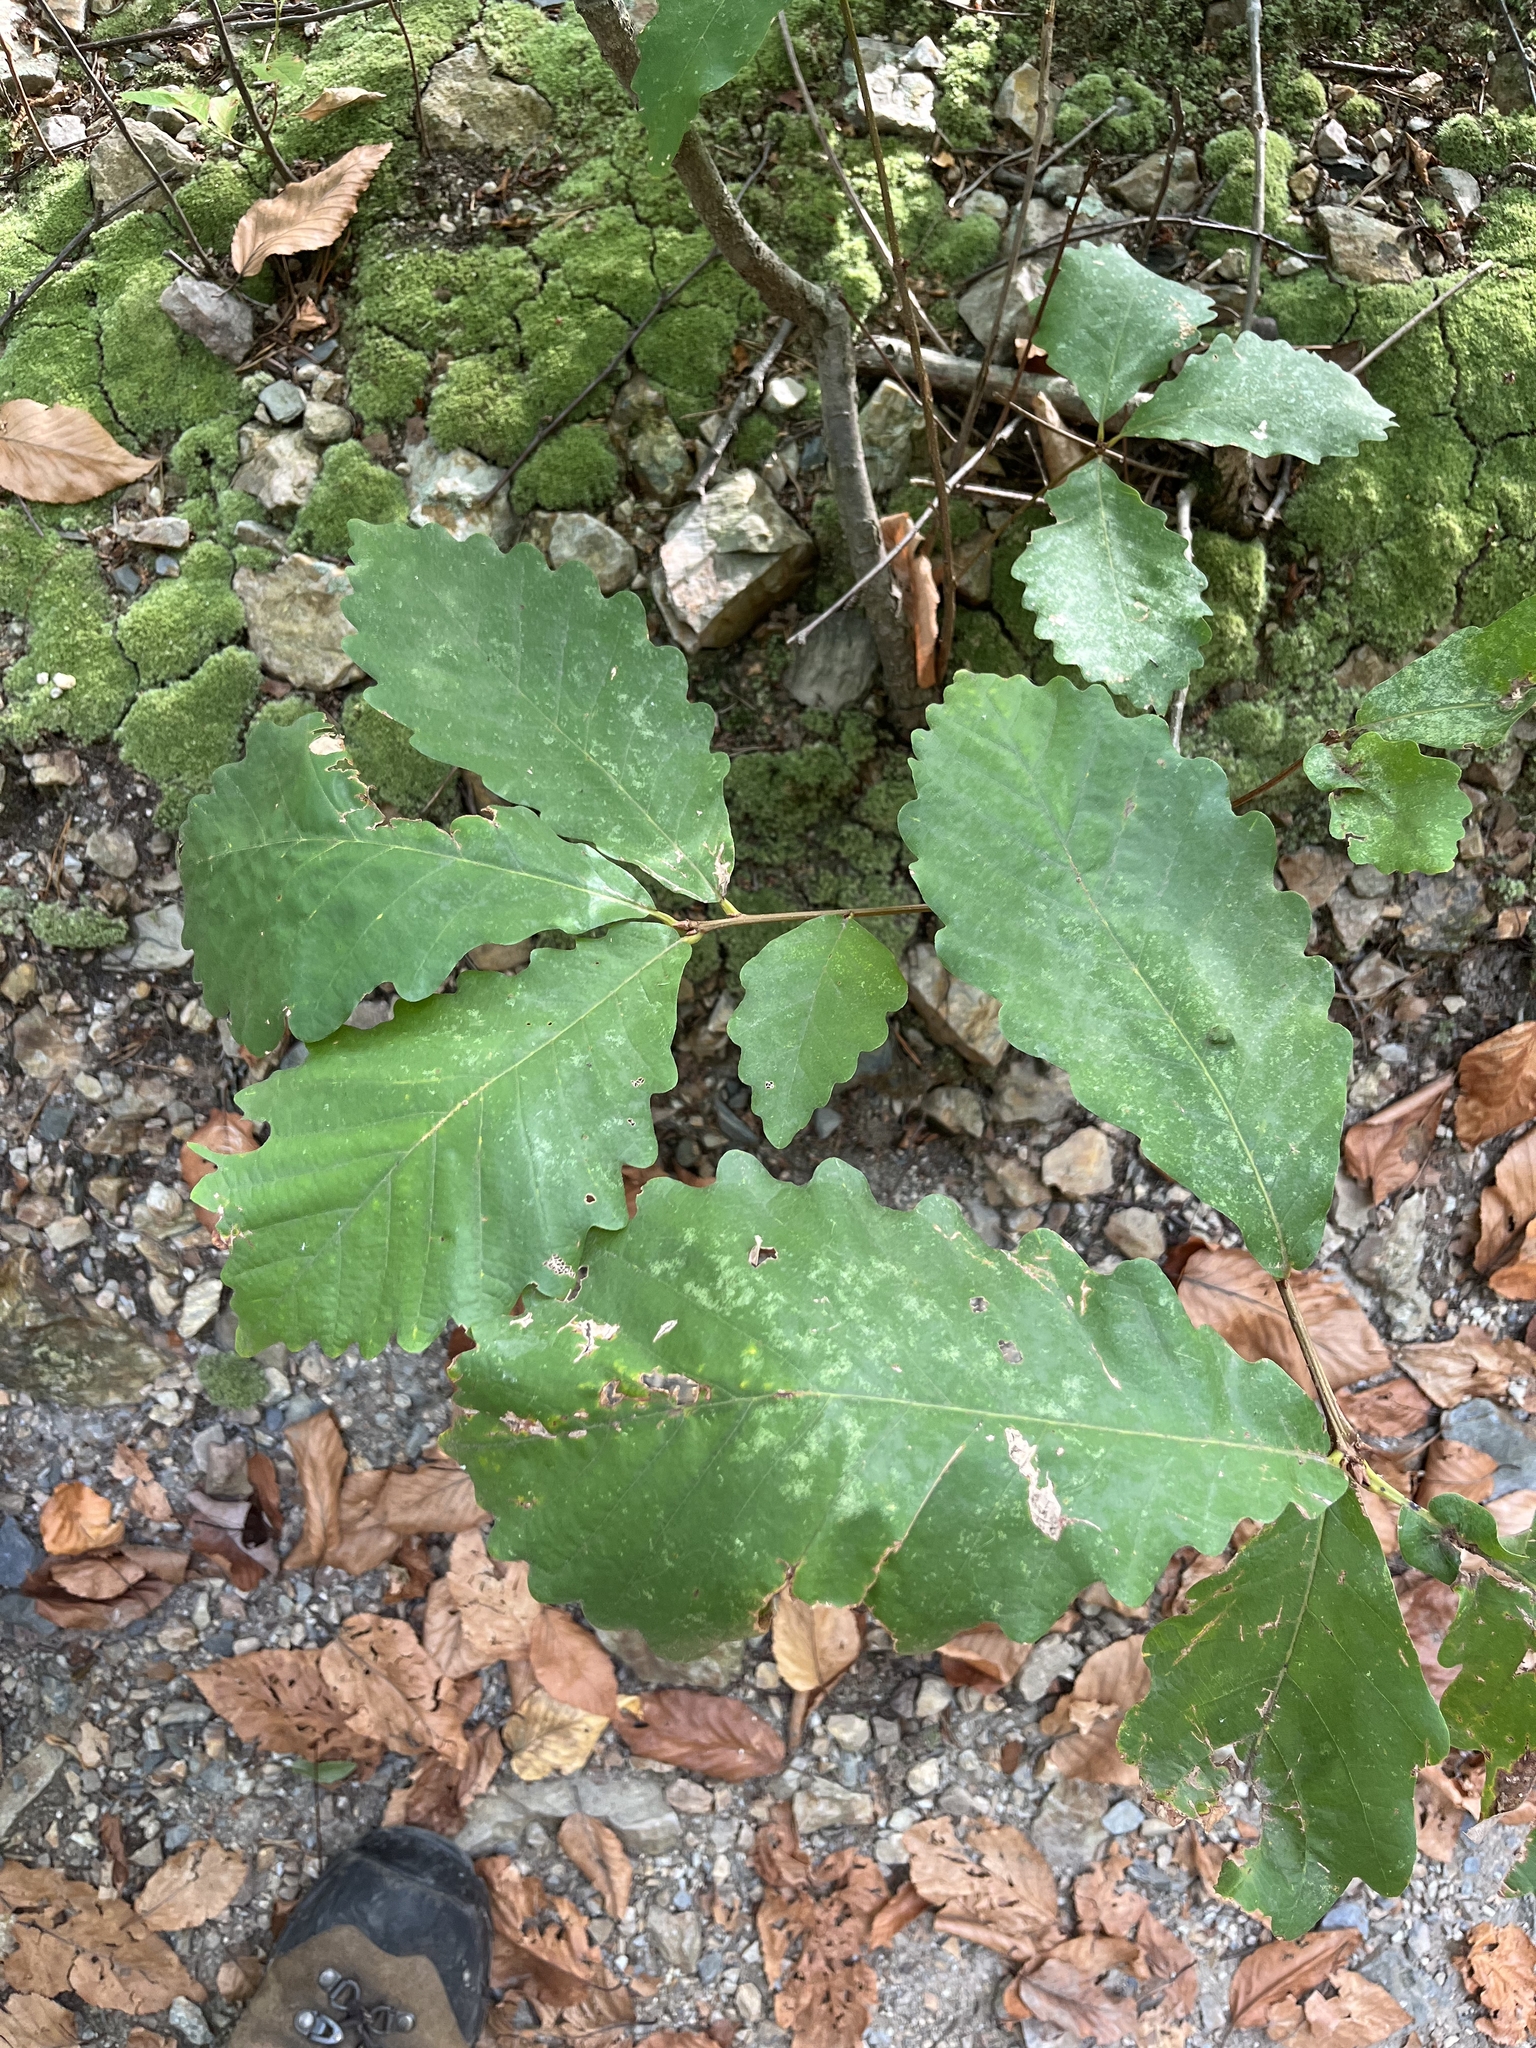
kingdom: Plantae
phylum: Tracheophyta
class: Magnoliopsida
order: Fagales
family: Fagaceae
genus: Quercus
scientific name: Quercus montana
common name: Chestnut oak
